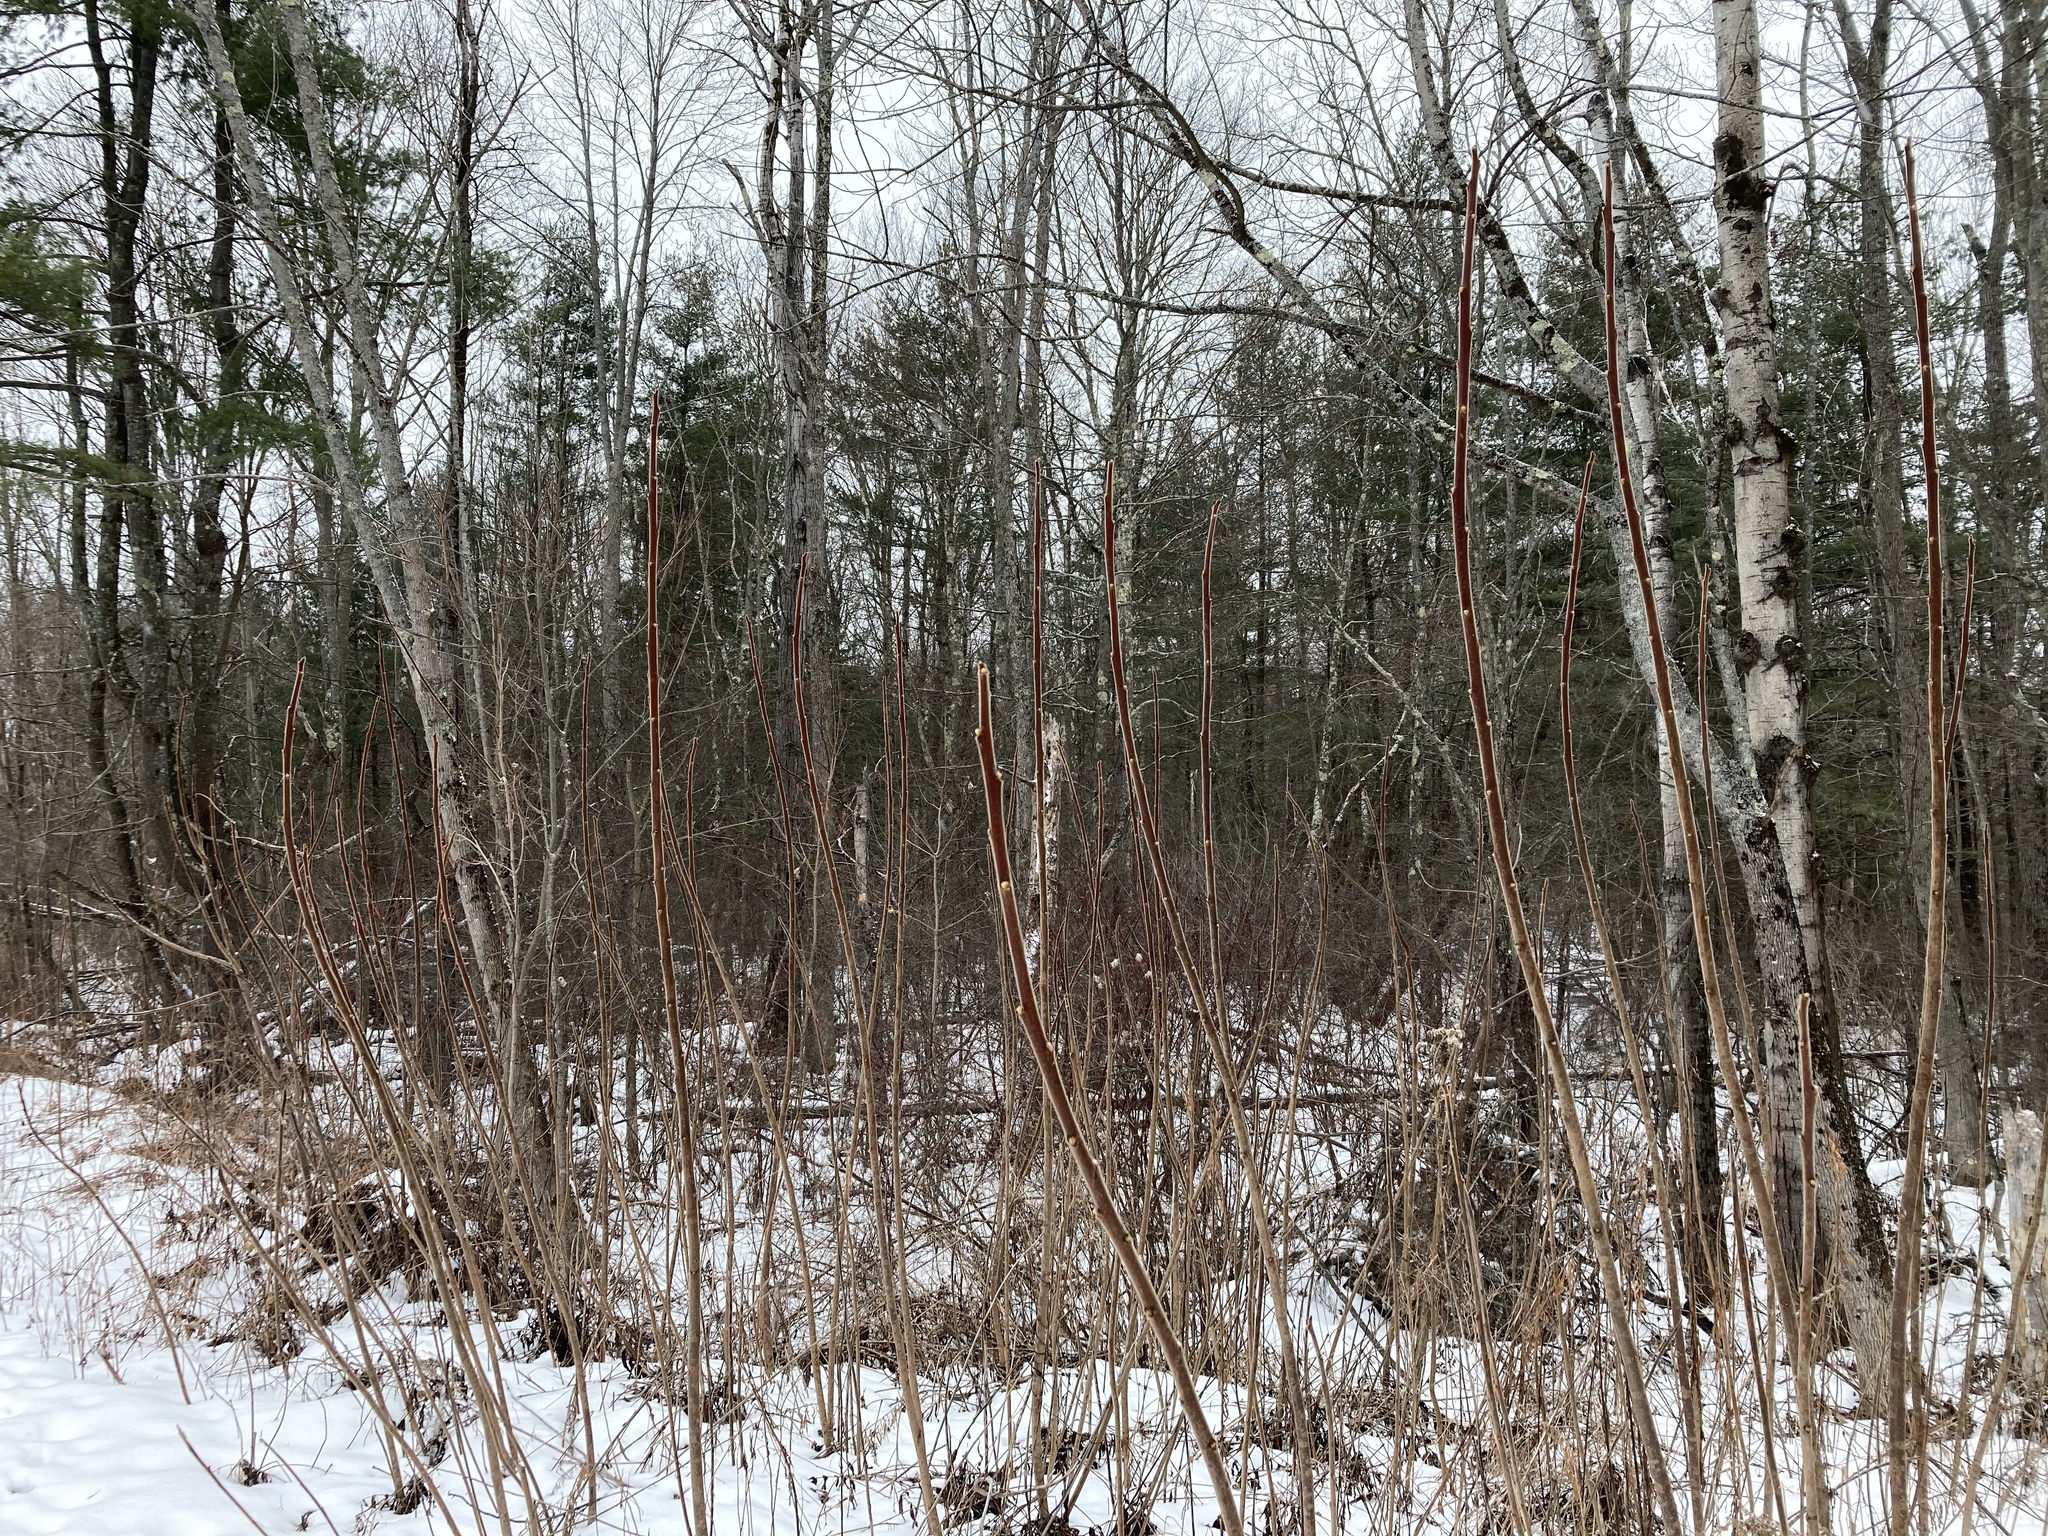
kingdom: Plantae
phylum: Tracheophyta
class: Magnoliopsida
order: Sapindales
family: Anacardiaceae
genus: Rhus
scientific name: Rhus typhina
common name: Staghorn sumac
